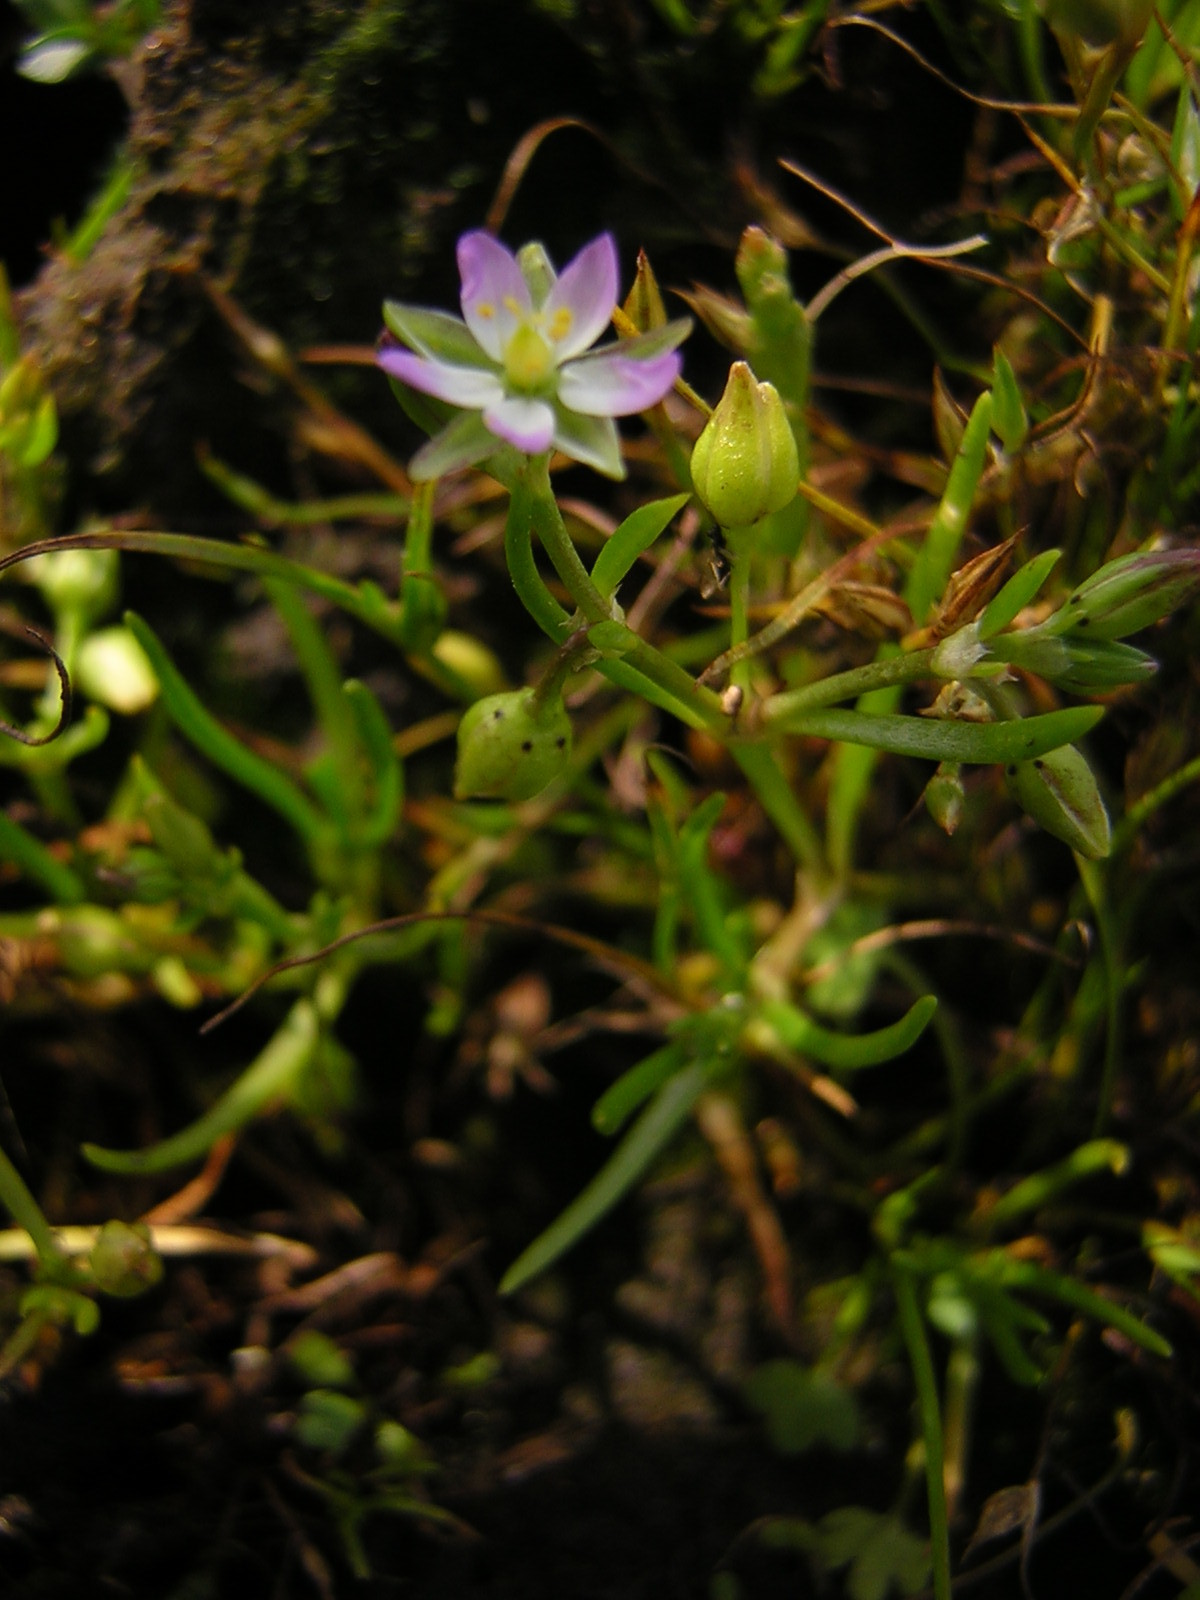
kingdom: Plantae
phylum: Tracheophyta
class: Magnoliopsida
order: Caryophyllales
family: Caryophyllaceae
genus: Spergularia
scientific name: Spergularia marina
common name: Lesser sea-spurrey
